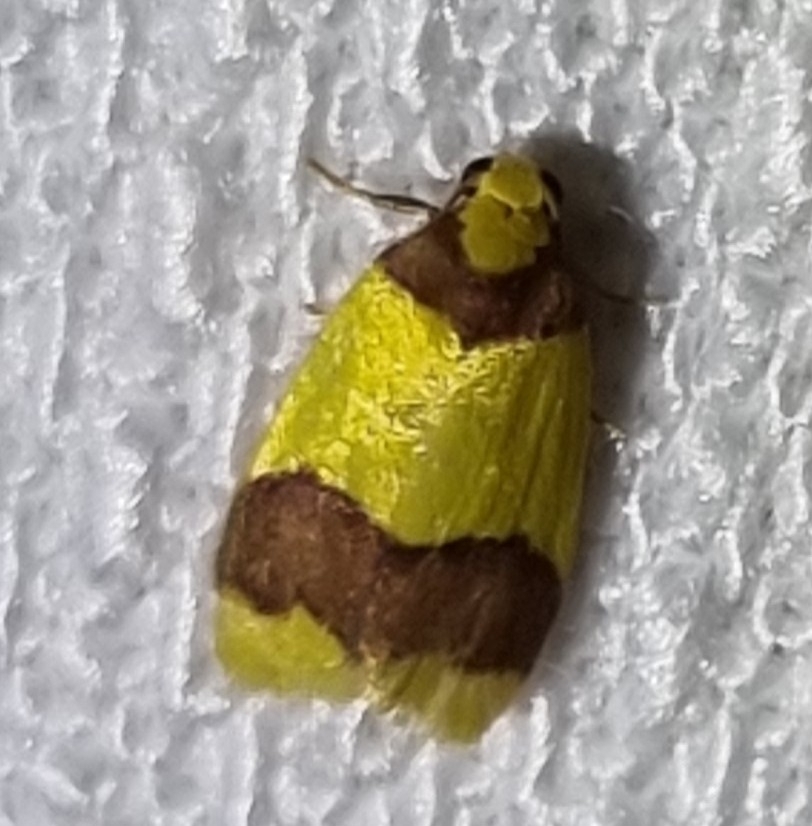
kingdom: Animalia
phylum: Arthropoda
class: Insecta
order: Lepidoptera
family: Erebidae
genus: Heterallactis
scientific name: Heterallactis microchrysa
